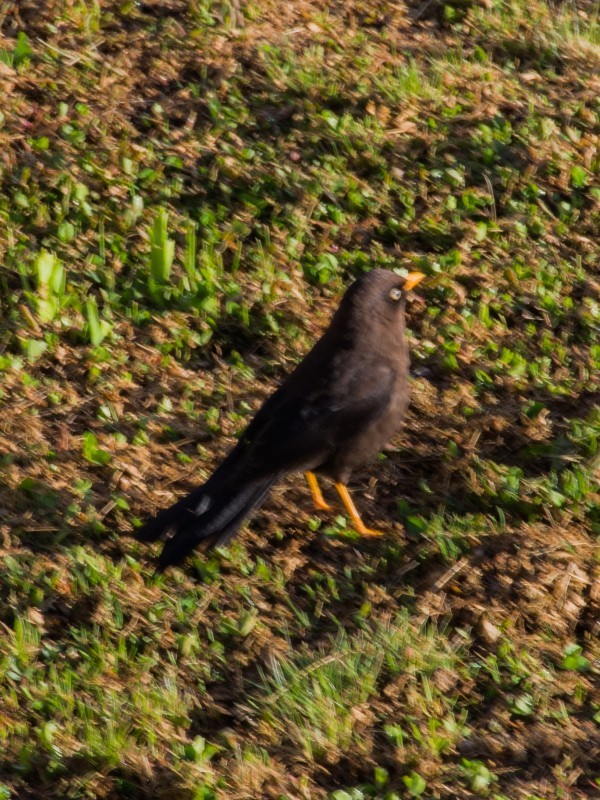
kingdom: Animalia
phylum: Chordata
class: Aves
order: Passeriformes
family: Turdidae
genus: Turdus
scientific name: Turdus nigrescens
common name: Sooty thrush
